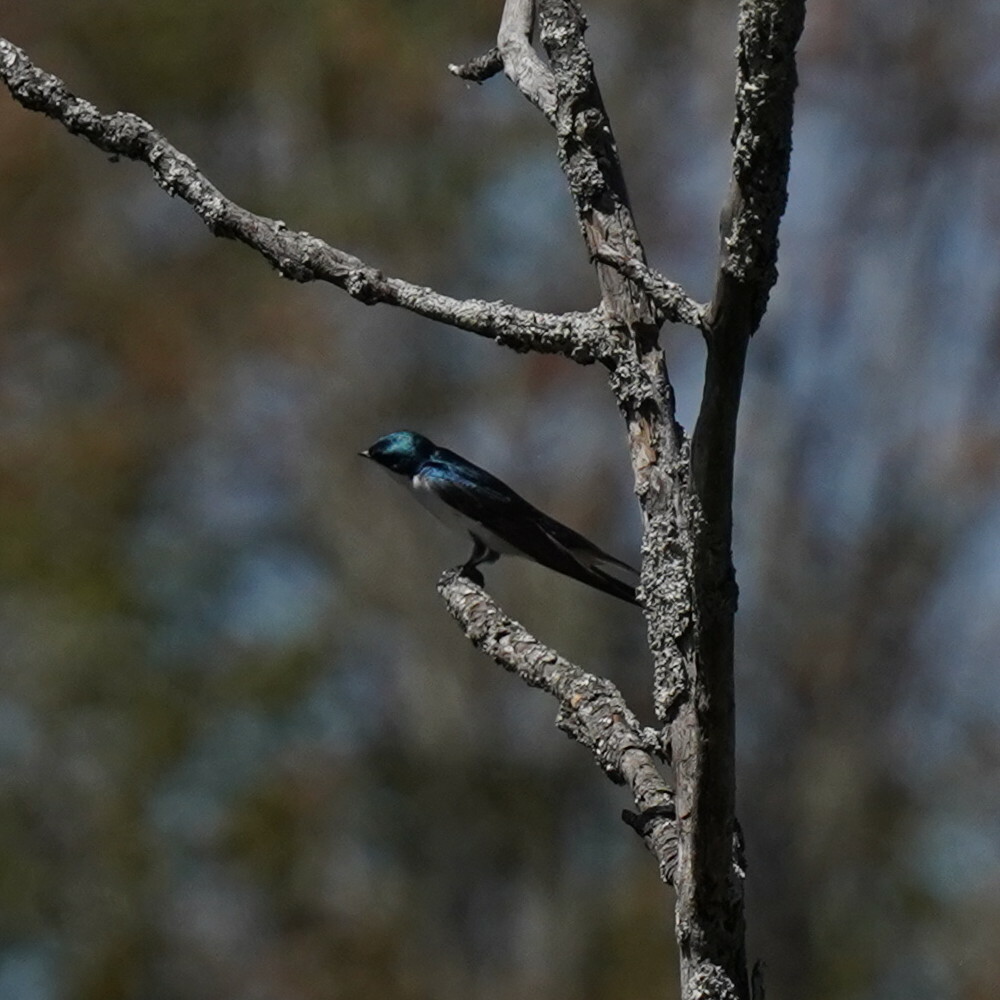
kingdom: Animalia
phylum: Chordata
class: Aves
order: Passeriformes
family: Hirundinidae
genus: Tachycineta
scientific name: Tachycineta bicolor
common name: Tree swallow
